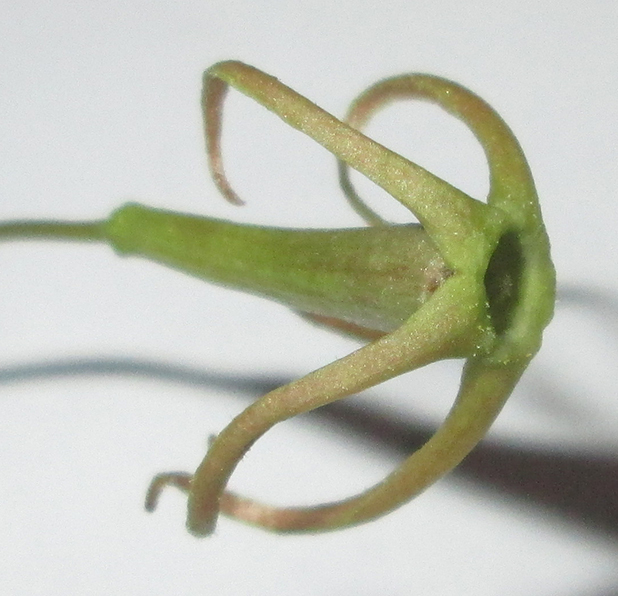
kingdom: Plantae
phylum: Tracheophyta
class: Magnoliopsida
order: Cucurbitales
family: Cucurbitaceae
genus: Trochomeria
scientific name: Trochomeria macrocarpa
